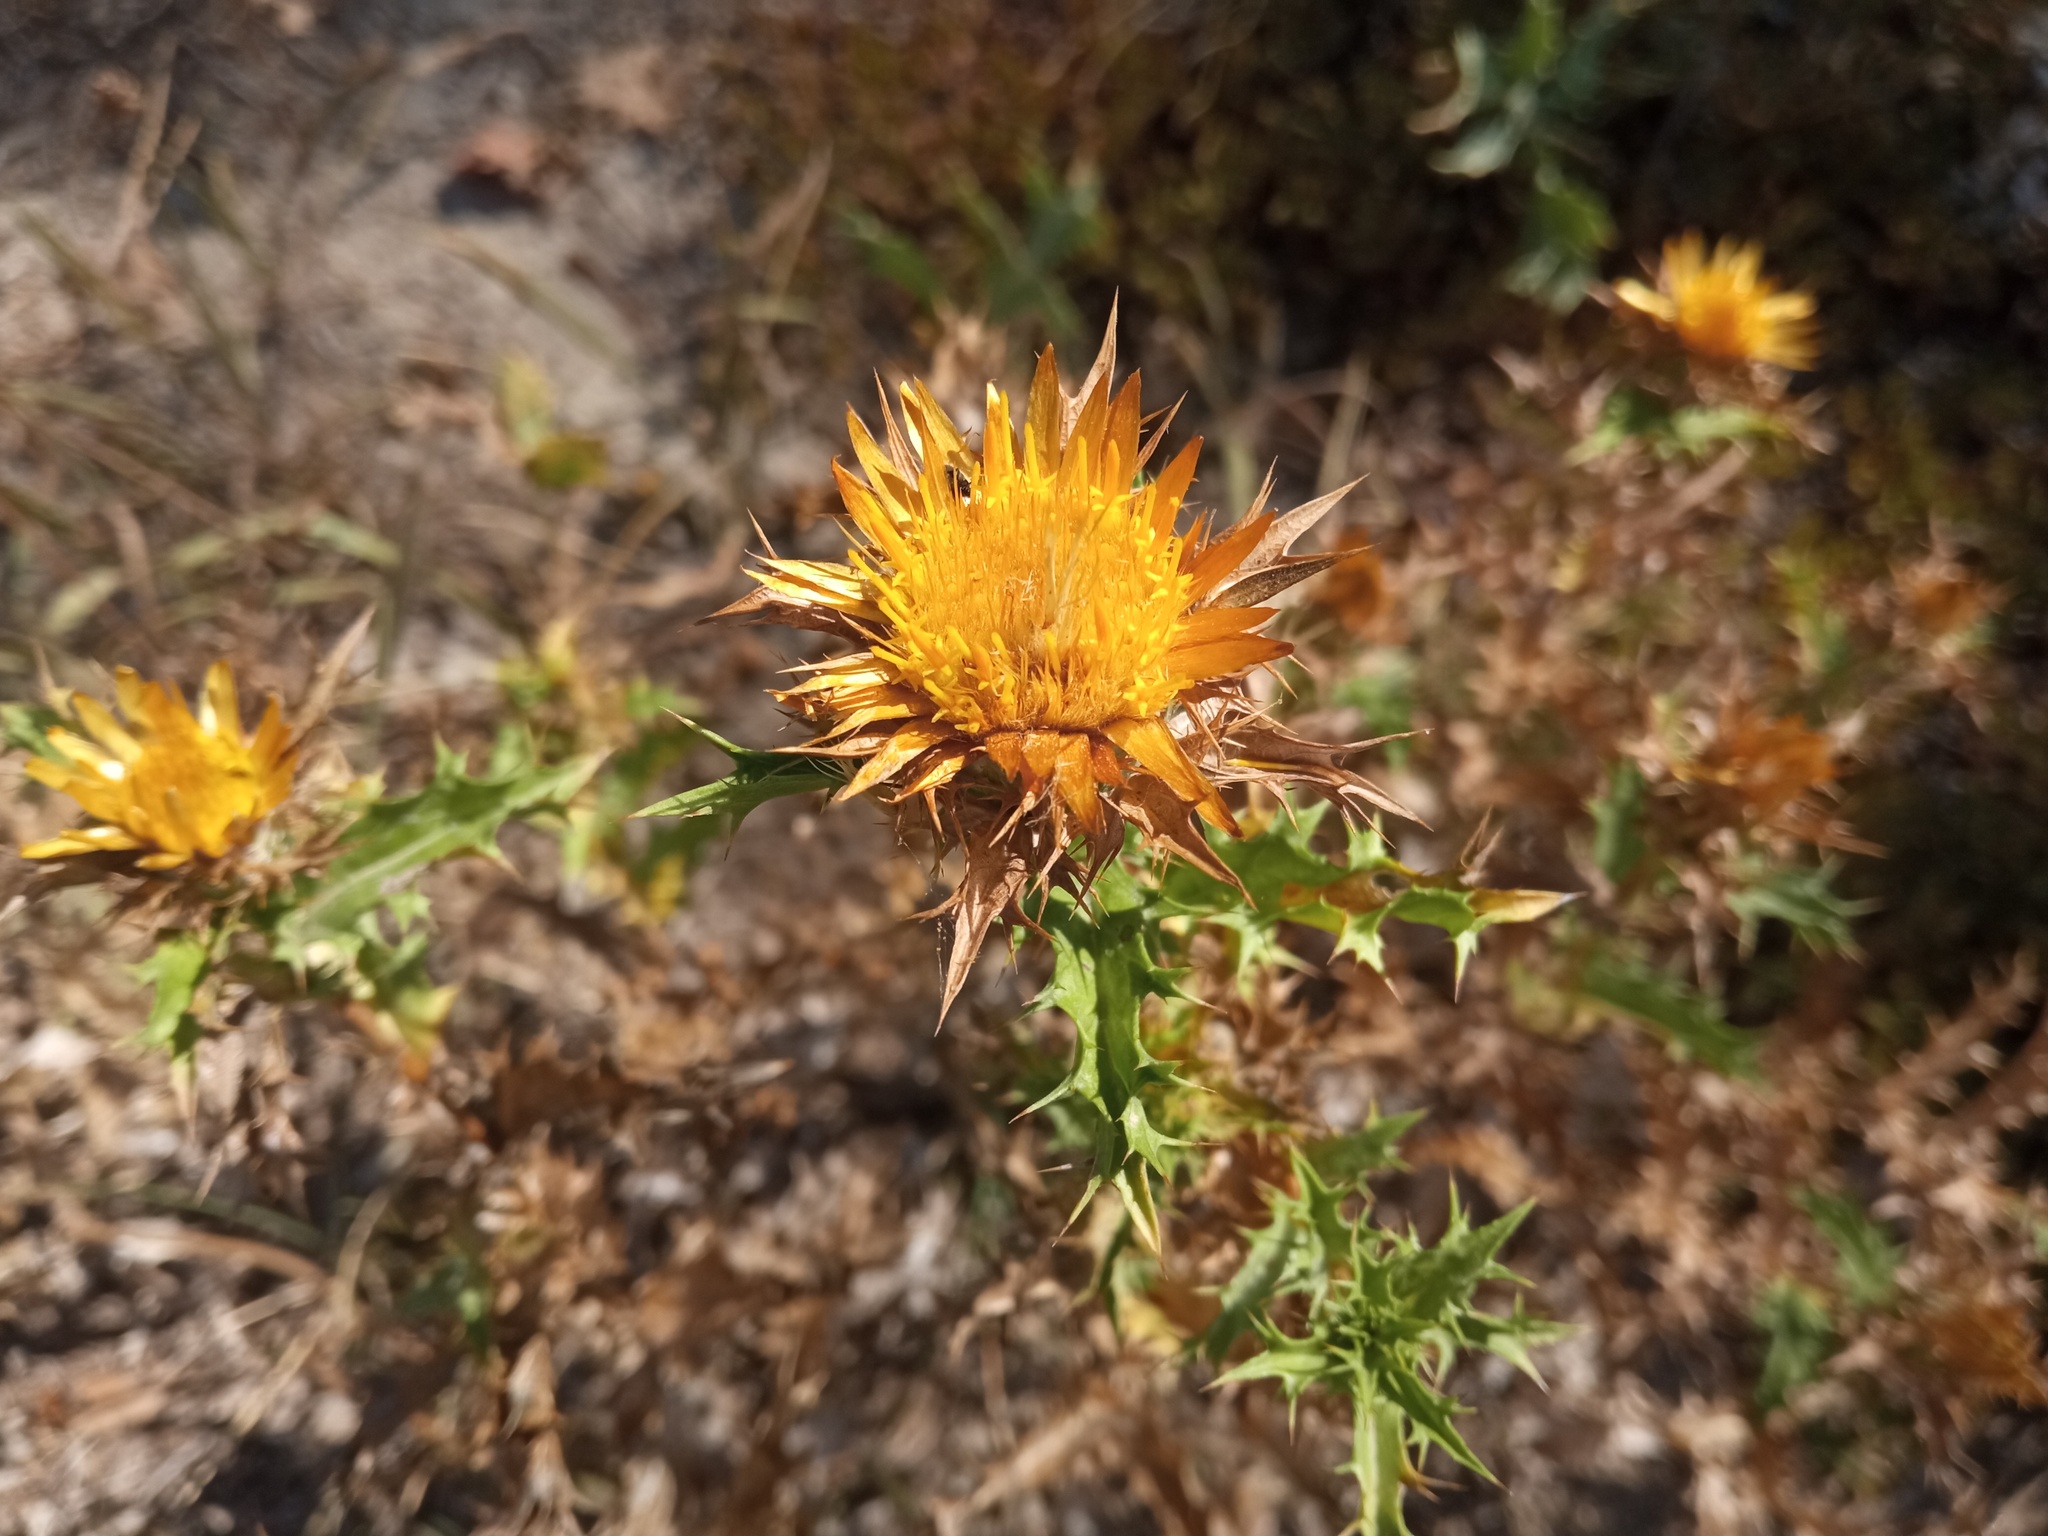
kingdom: Plantae
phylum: Tracheophyta
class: Magnoliopsida
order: Asterales
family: Asteraceae
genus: Carlina
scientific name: Carlina hispanica
